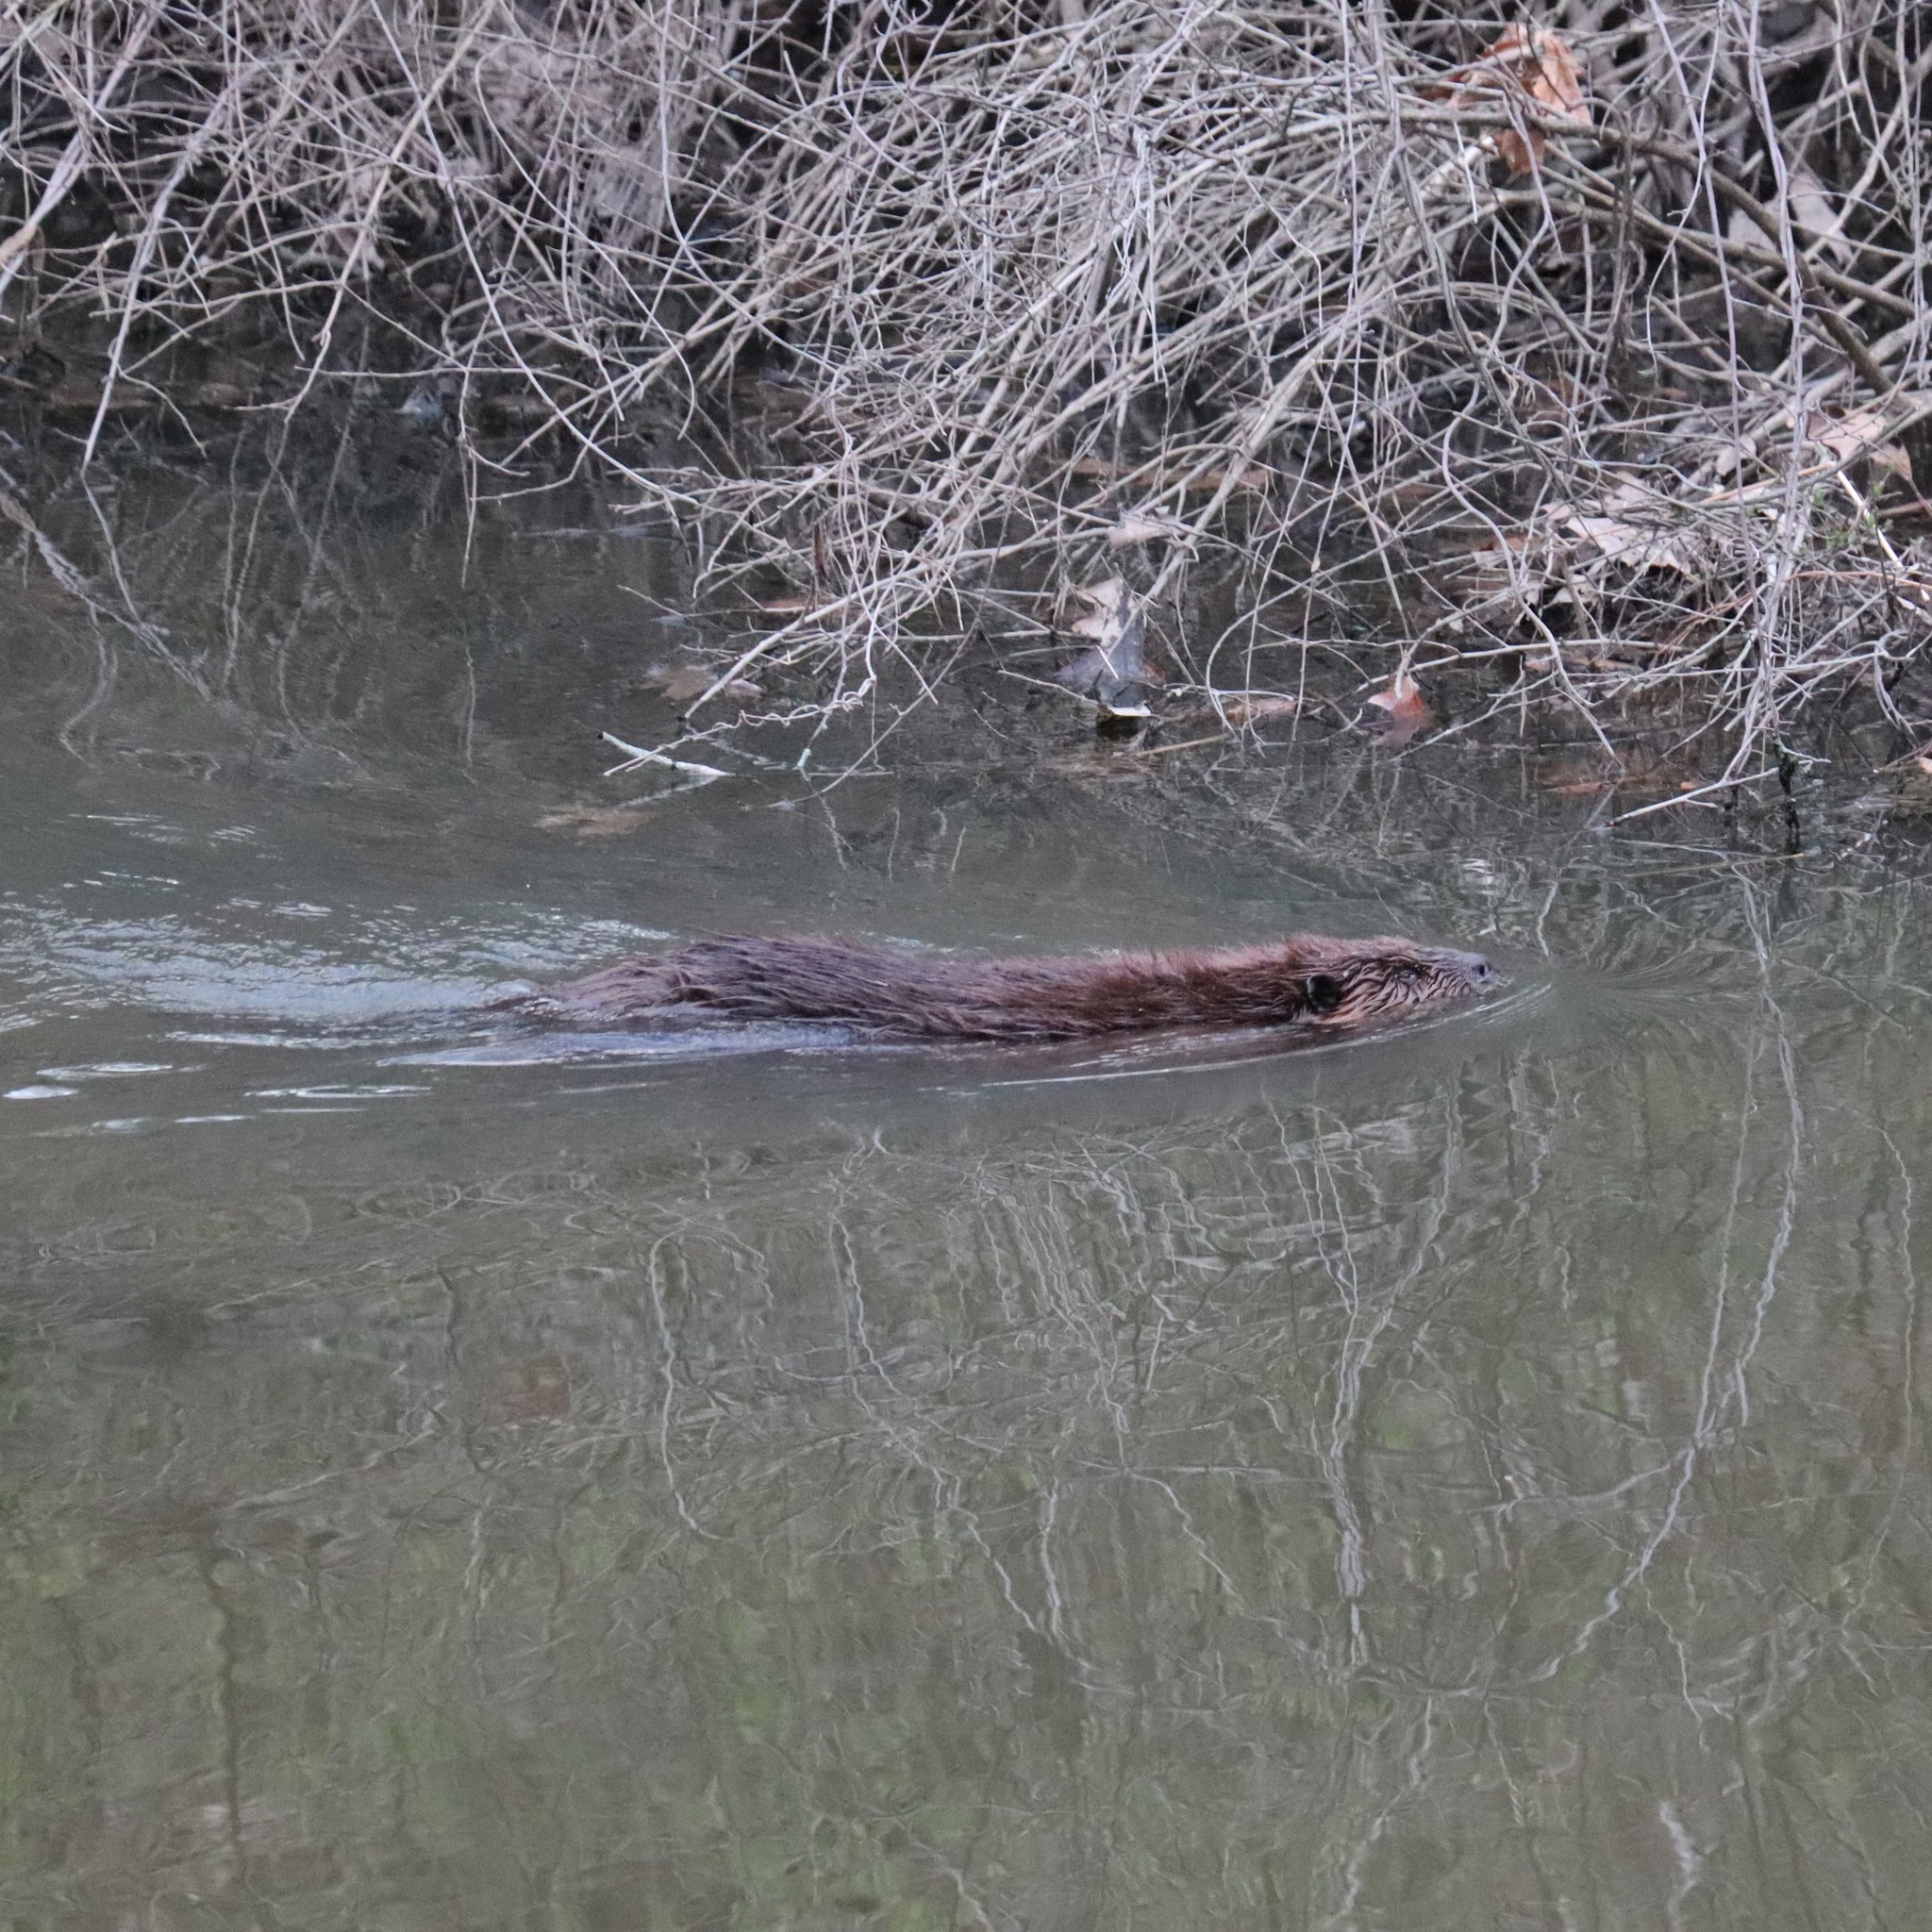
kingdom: Animalia
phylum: Chordata
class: Mammalia
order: Rodentia
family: Castoridae
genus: Castor
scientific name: Castor canadensis
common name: American beaver
